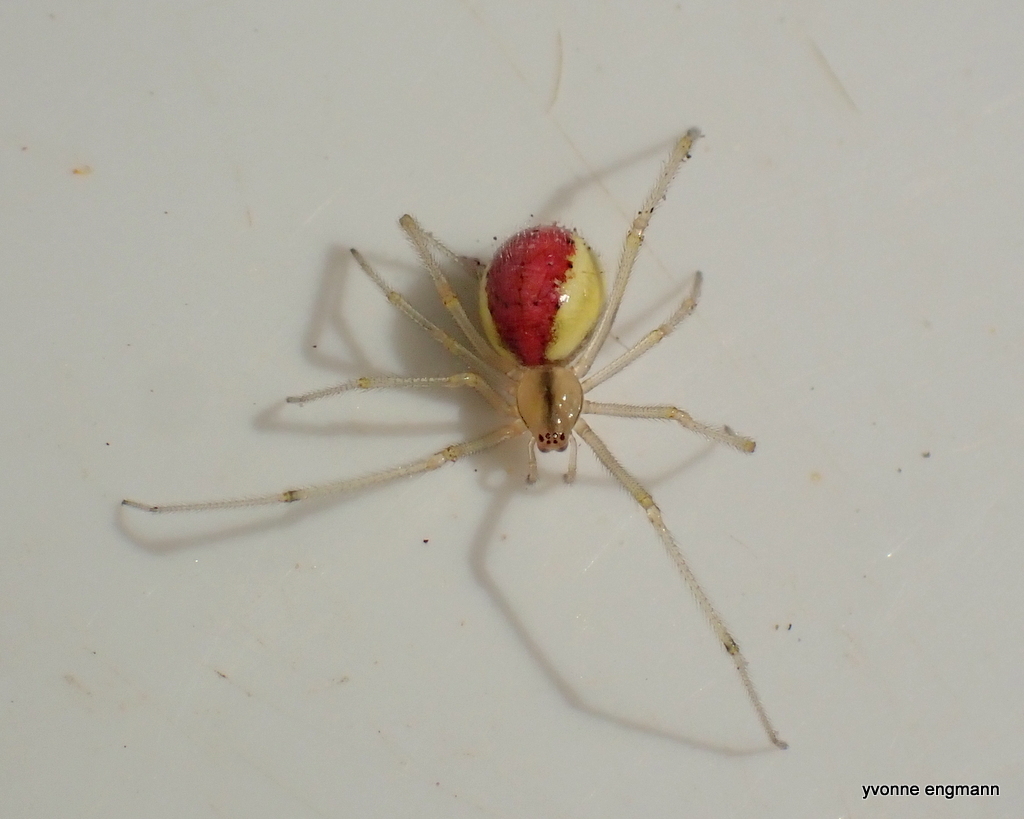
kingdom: Animalia
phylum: Arthropoda
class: Arachnida
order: Araneae
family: Theridiidae
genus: Enoplognatha
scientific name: Enoplognatha ovata
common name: Common candy-striped spider
